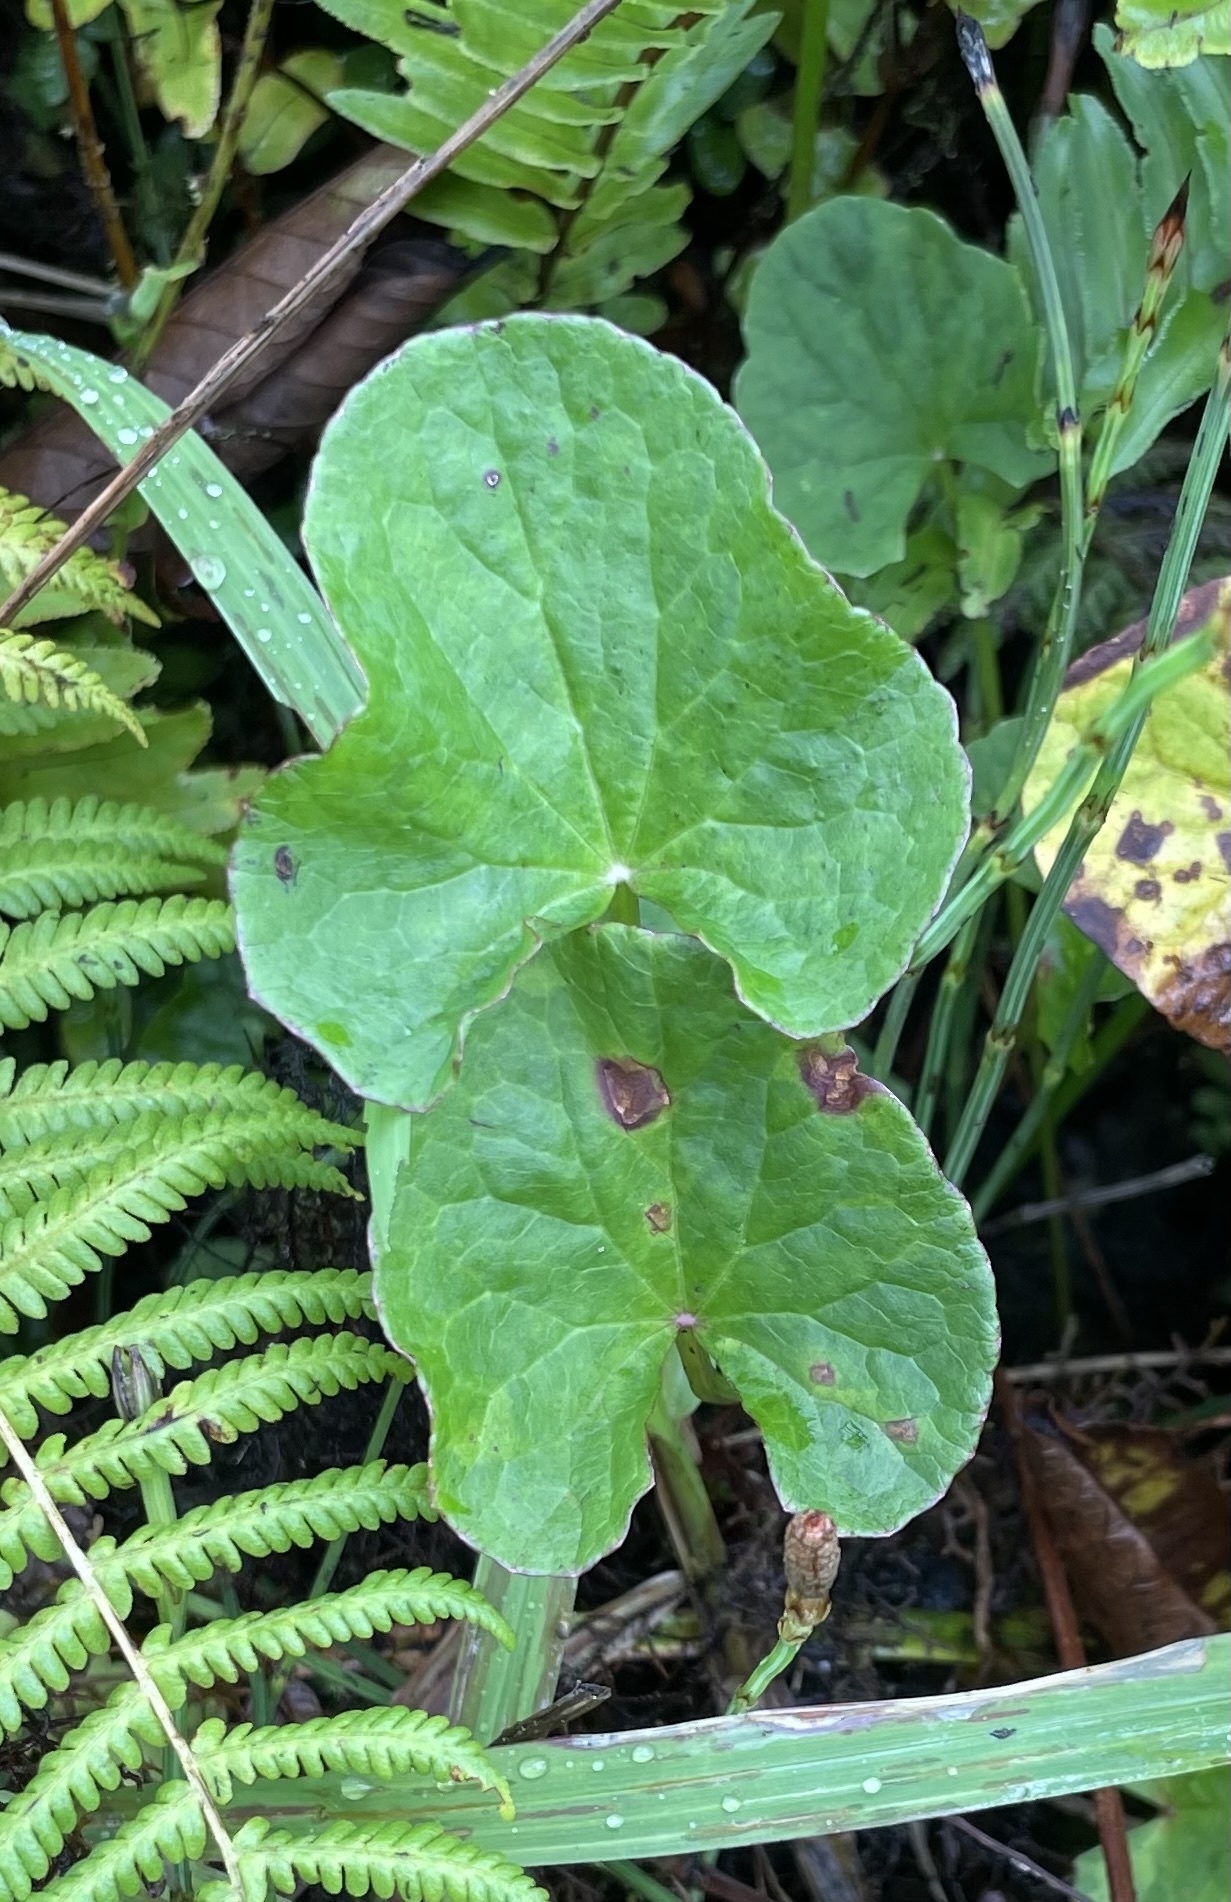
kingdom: Plantae
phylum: Tracheophyta
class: Magnoliopsida
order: Apiales
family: Apiaceae
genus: Centella
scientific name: Centella asiatica
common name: Spadeleaf
